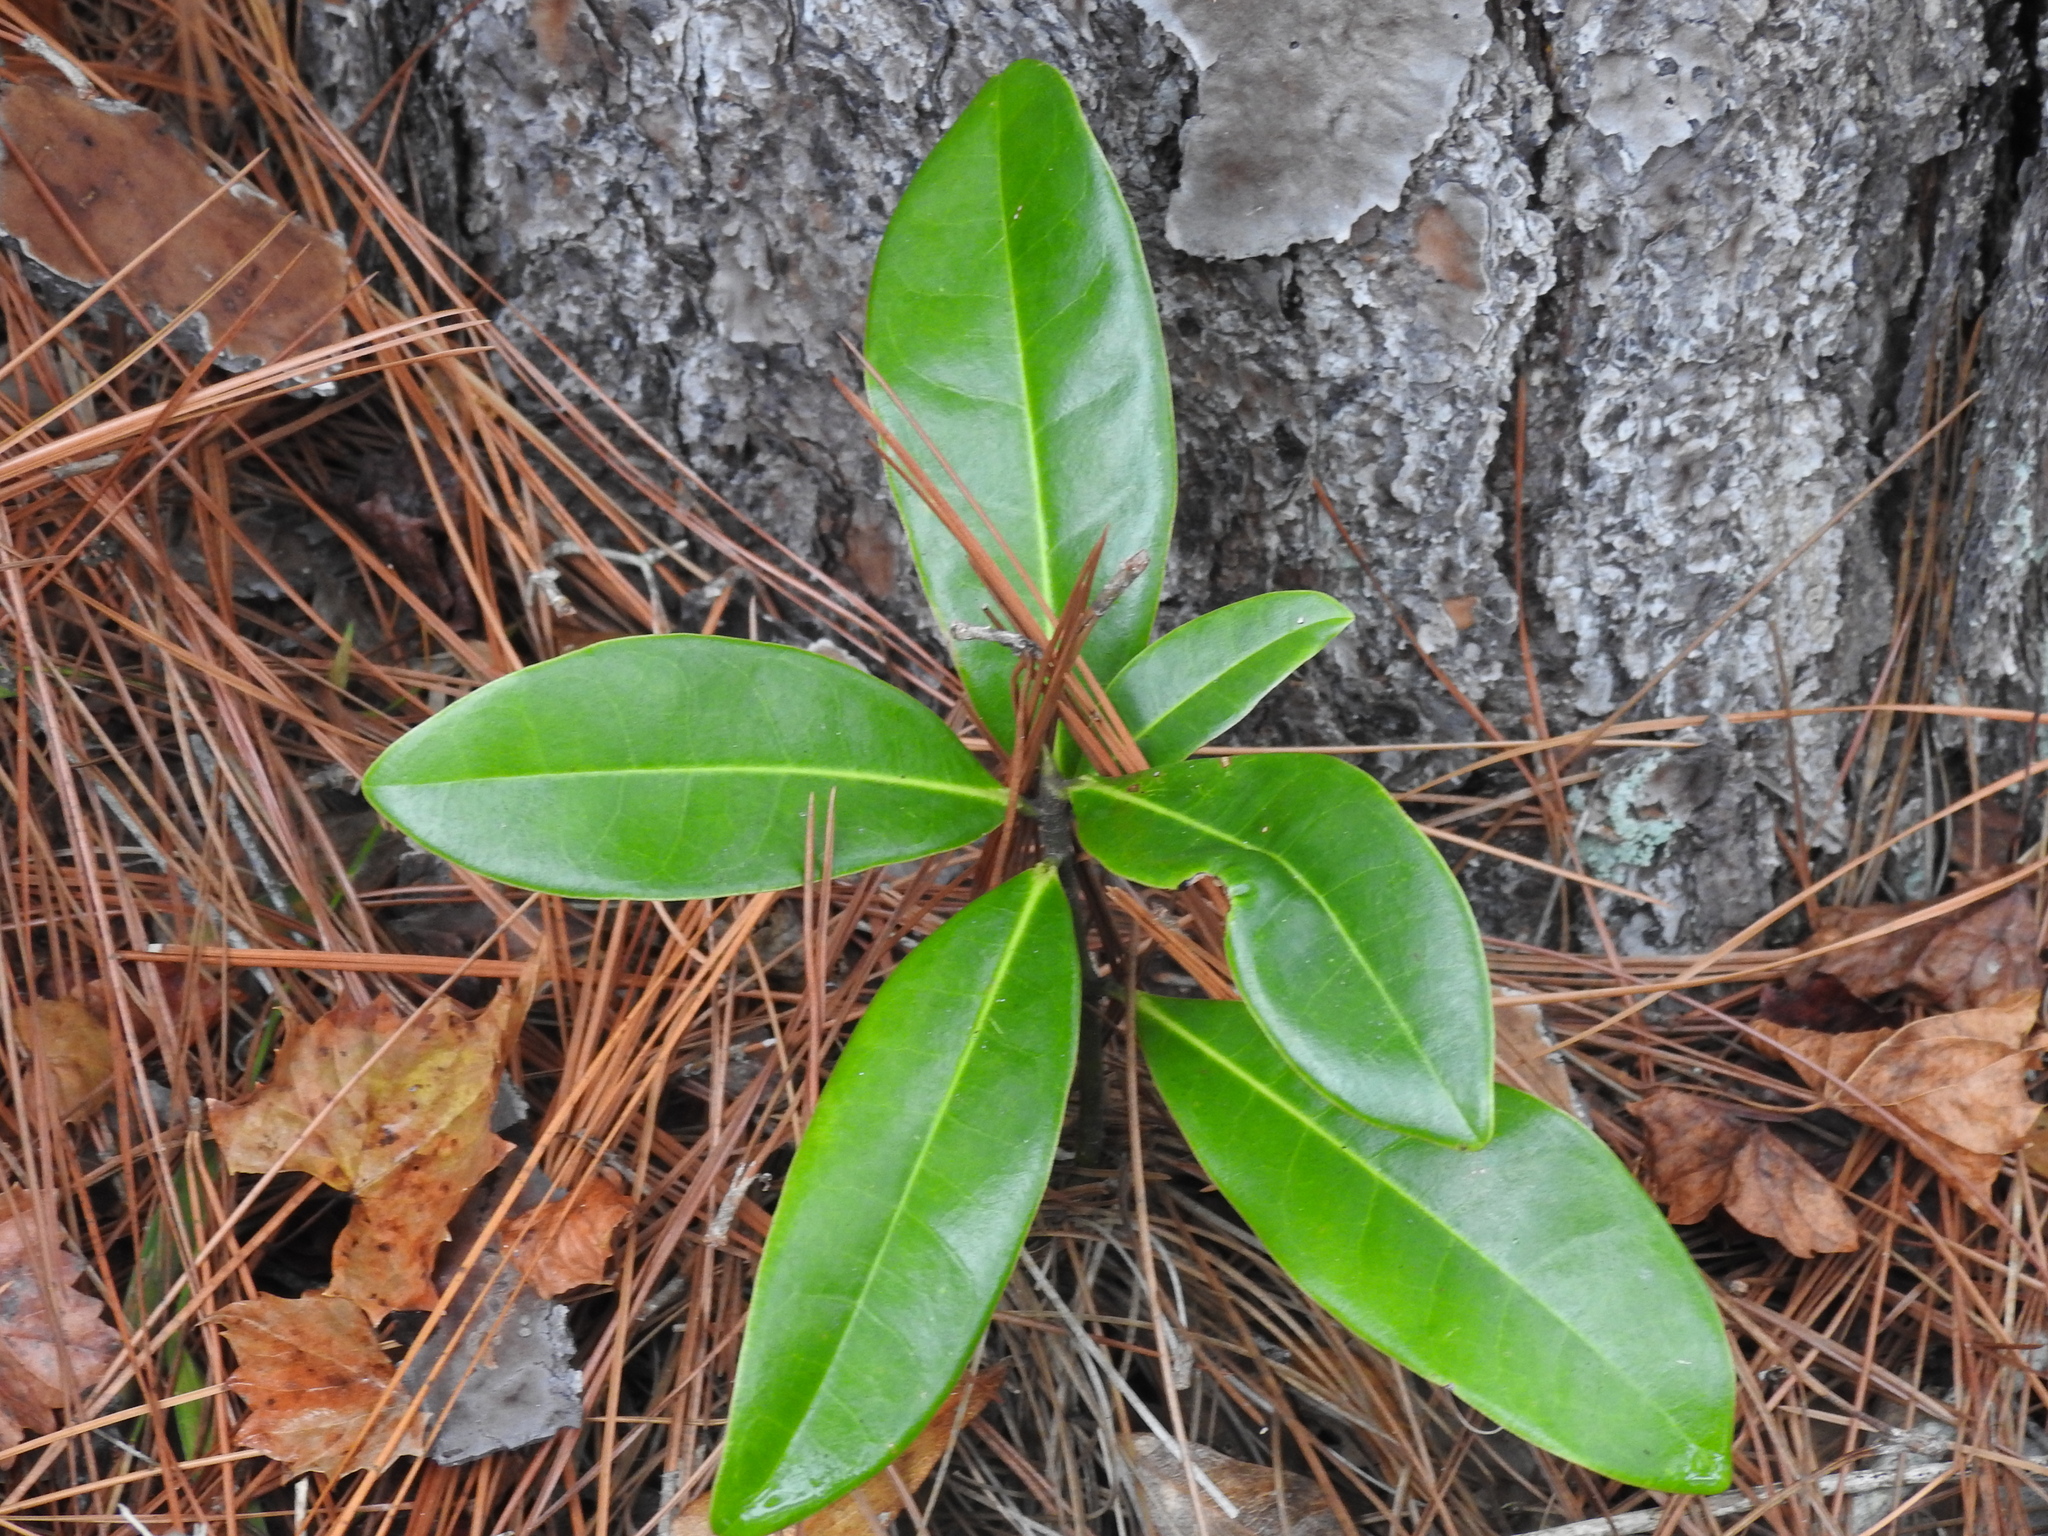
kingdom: Plantae
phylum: Tracheophyta
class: Magnoliopsida
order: Magnoliales
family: Magnoliaceae
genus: Magnolia
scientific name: Magnolia grandiflora
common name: Southern magnolia
